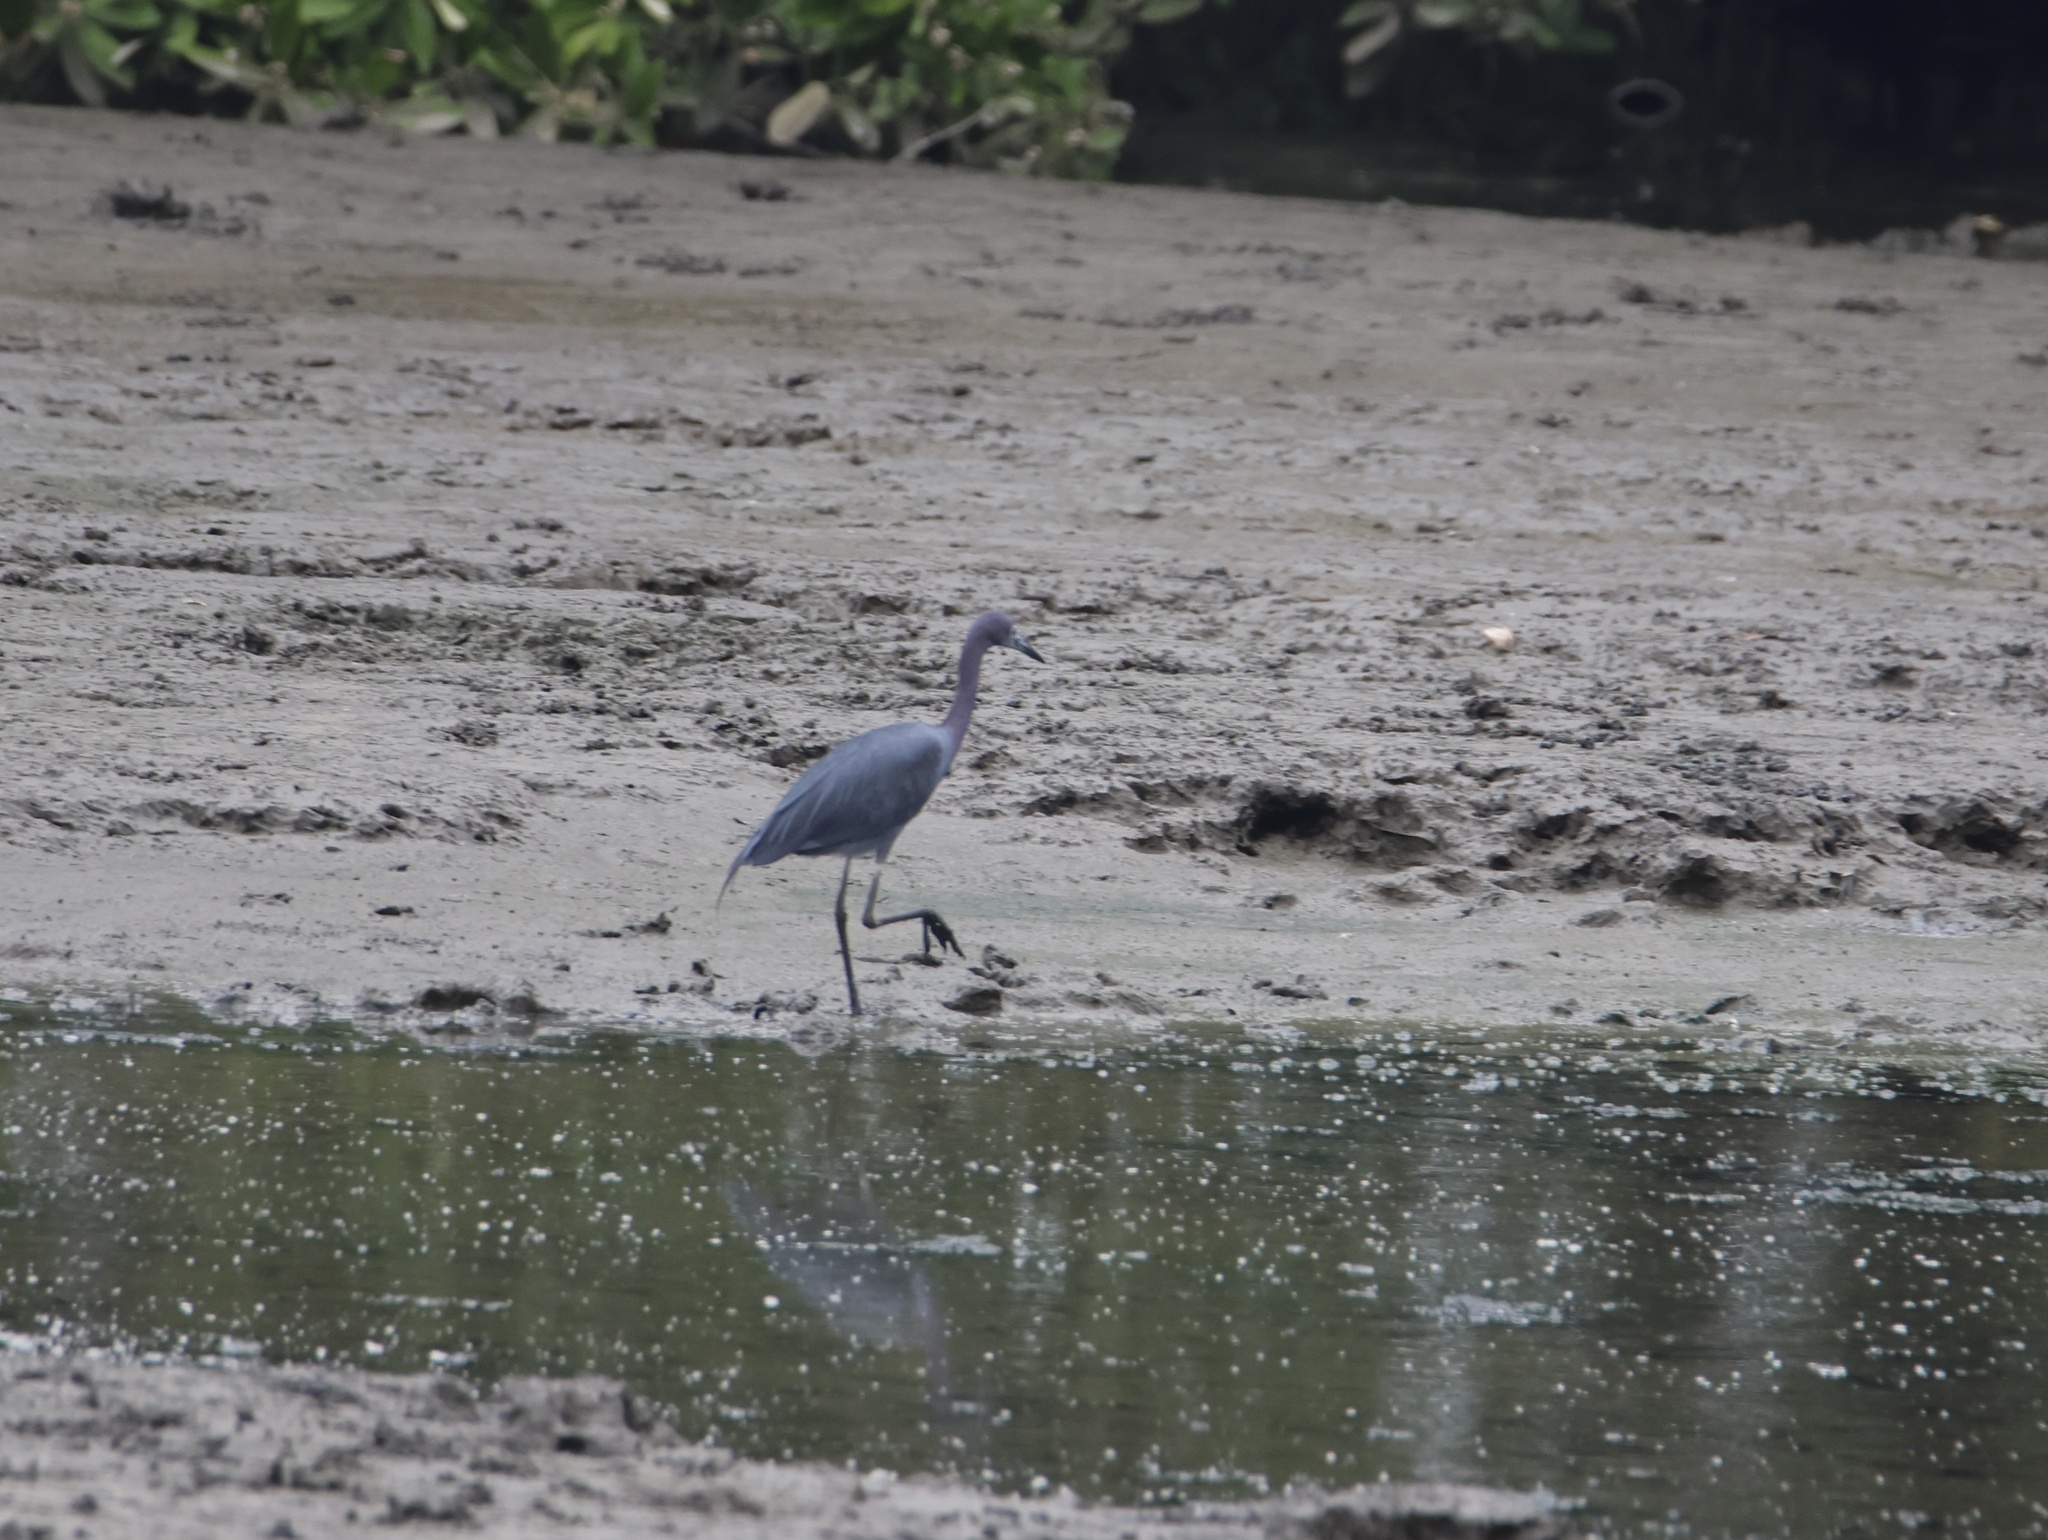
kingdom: Animalia
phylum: Chordata
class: Aves
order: Pelecaniformes
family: Ardeidae
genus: Egretta
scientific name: Egretta caerulea
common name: Little blue heron
